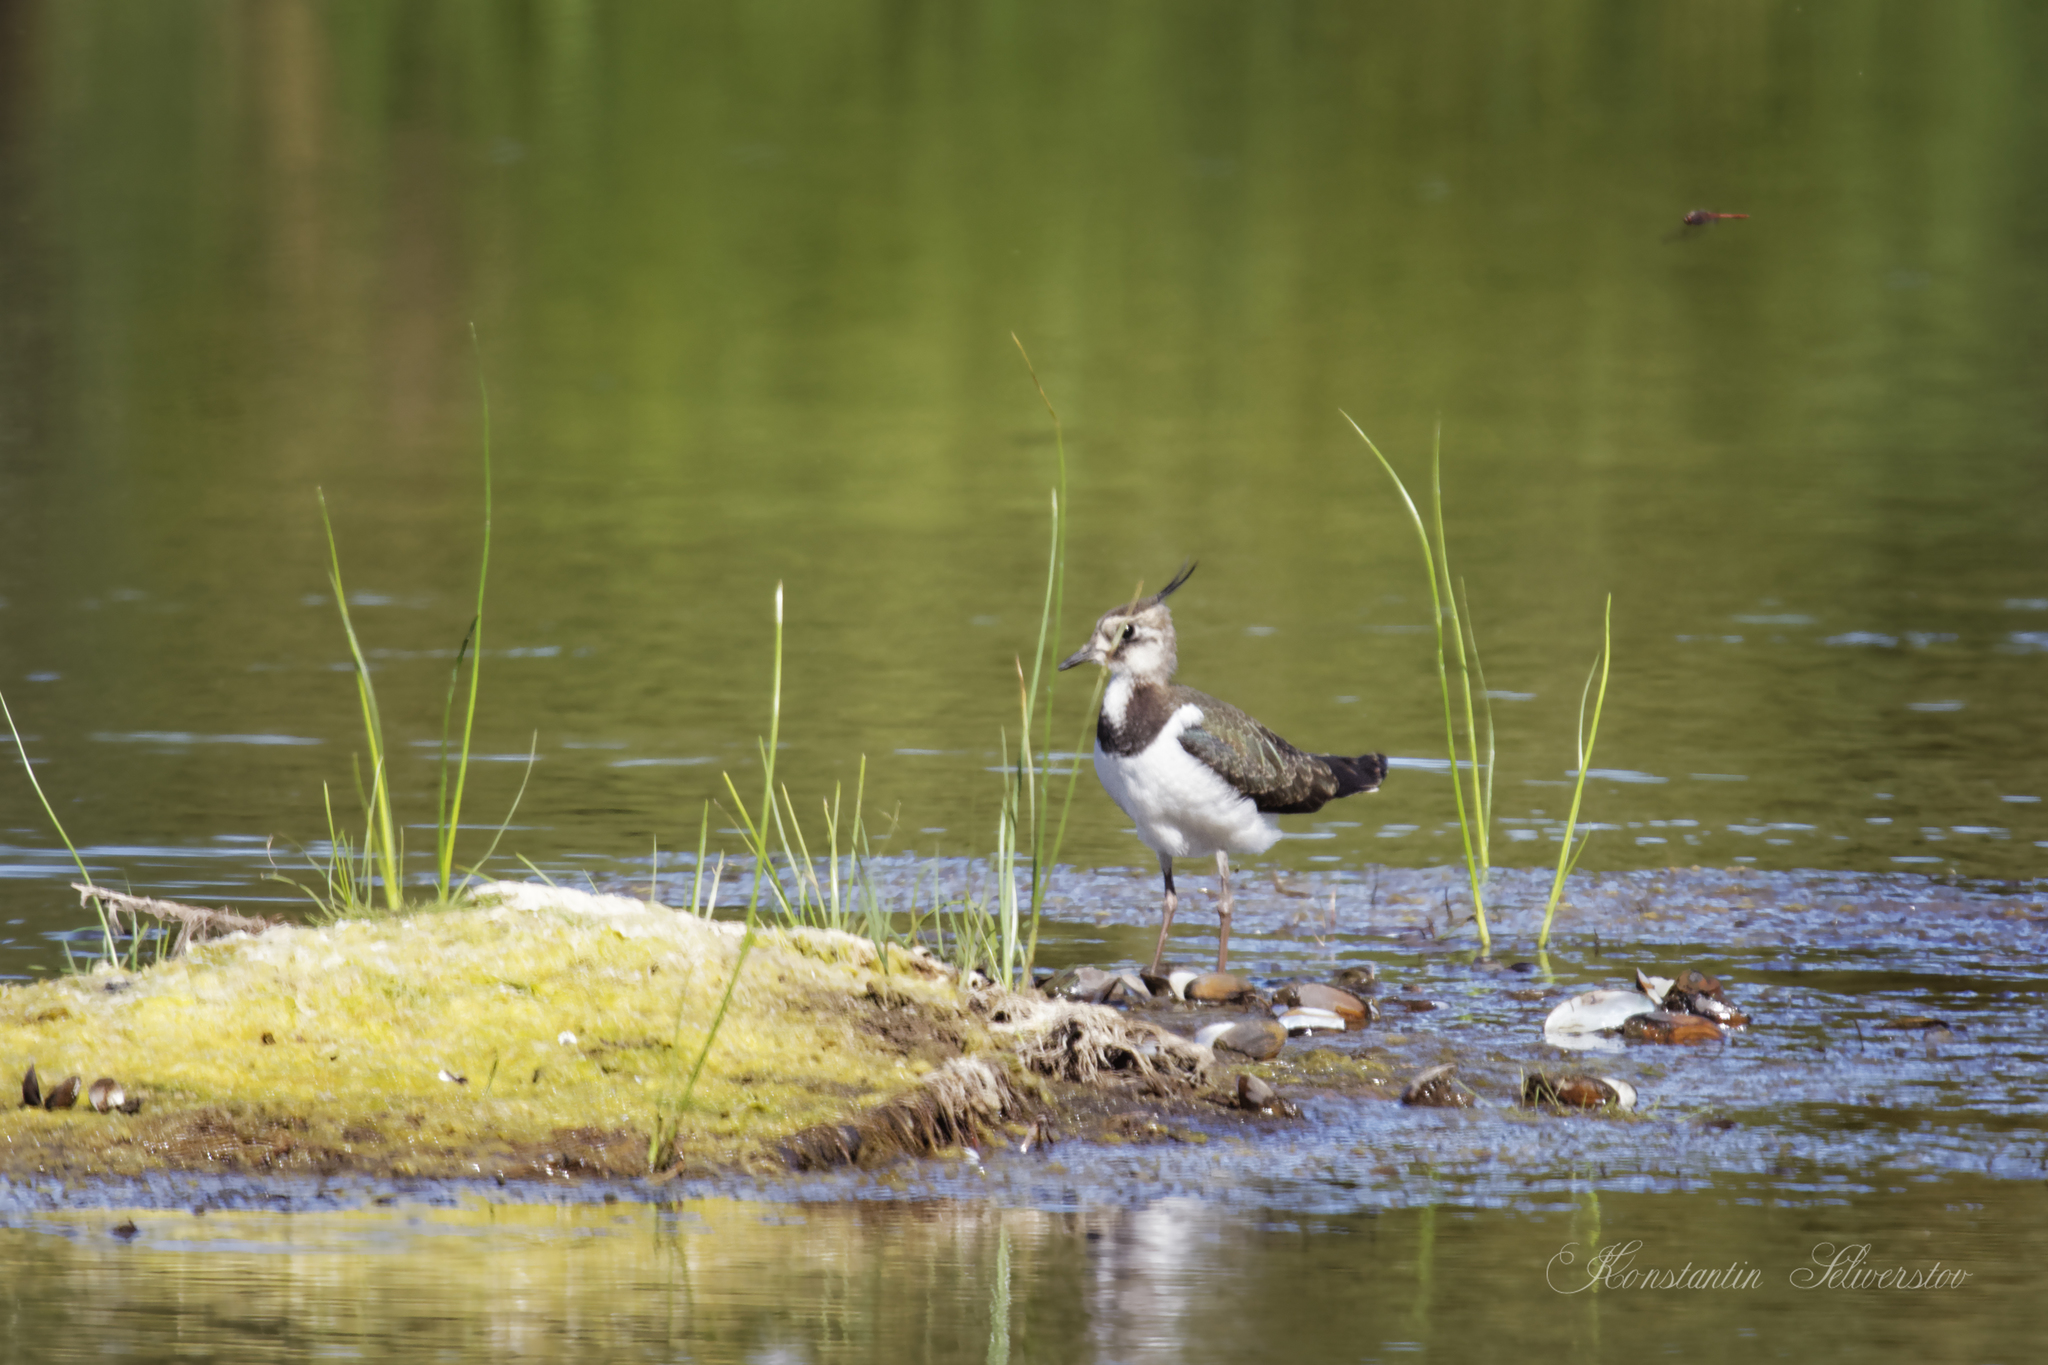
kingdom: Animalia
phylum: Chordata
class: Aves
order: Charadriiformes
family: Charadriidae
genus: Vanellus
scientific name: Vanellus vanellus
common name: Northern lapwing
